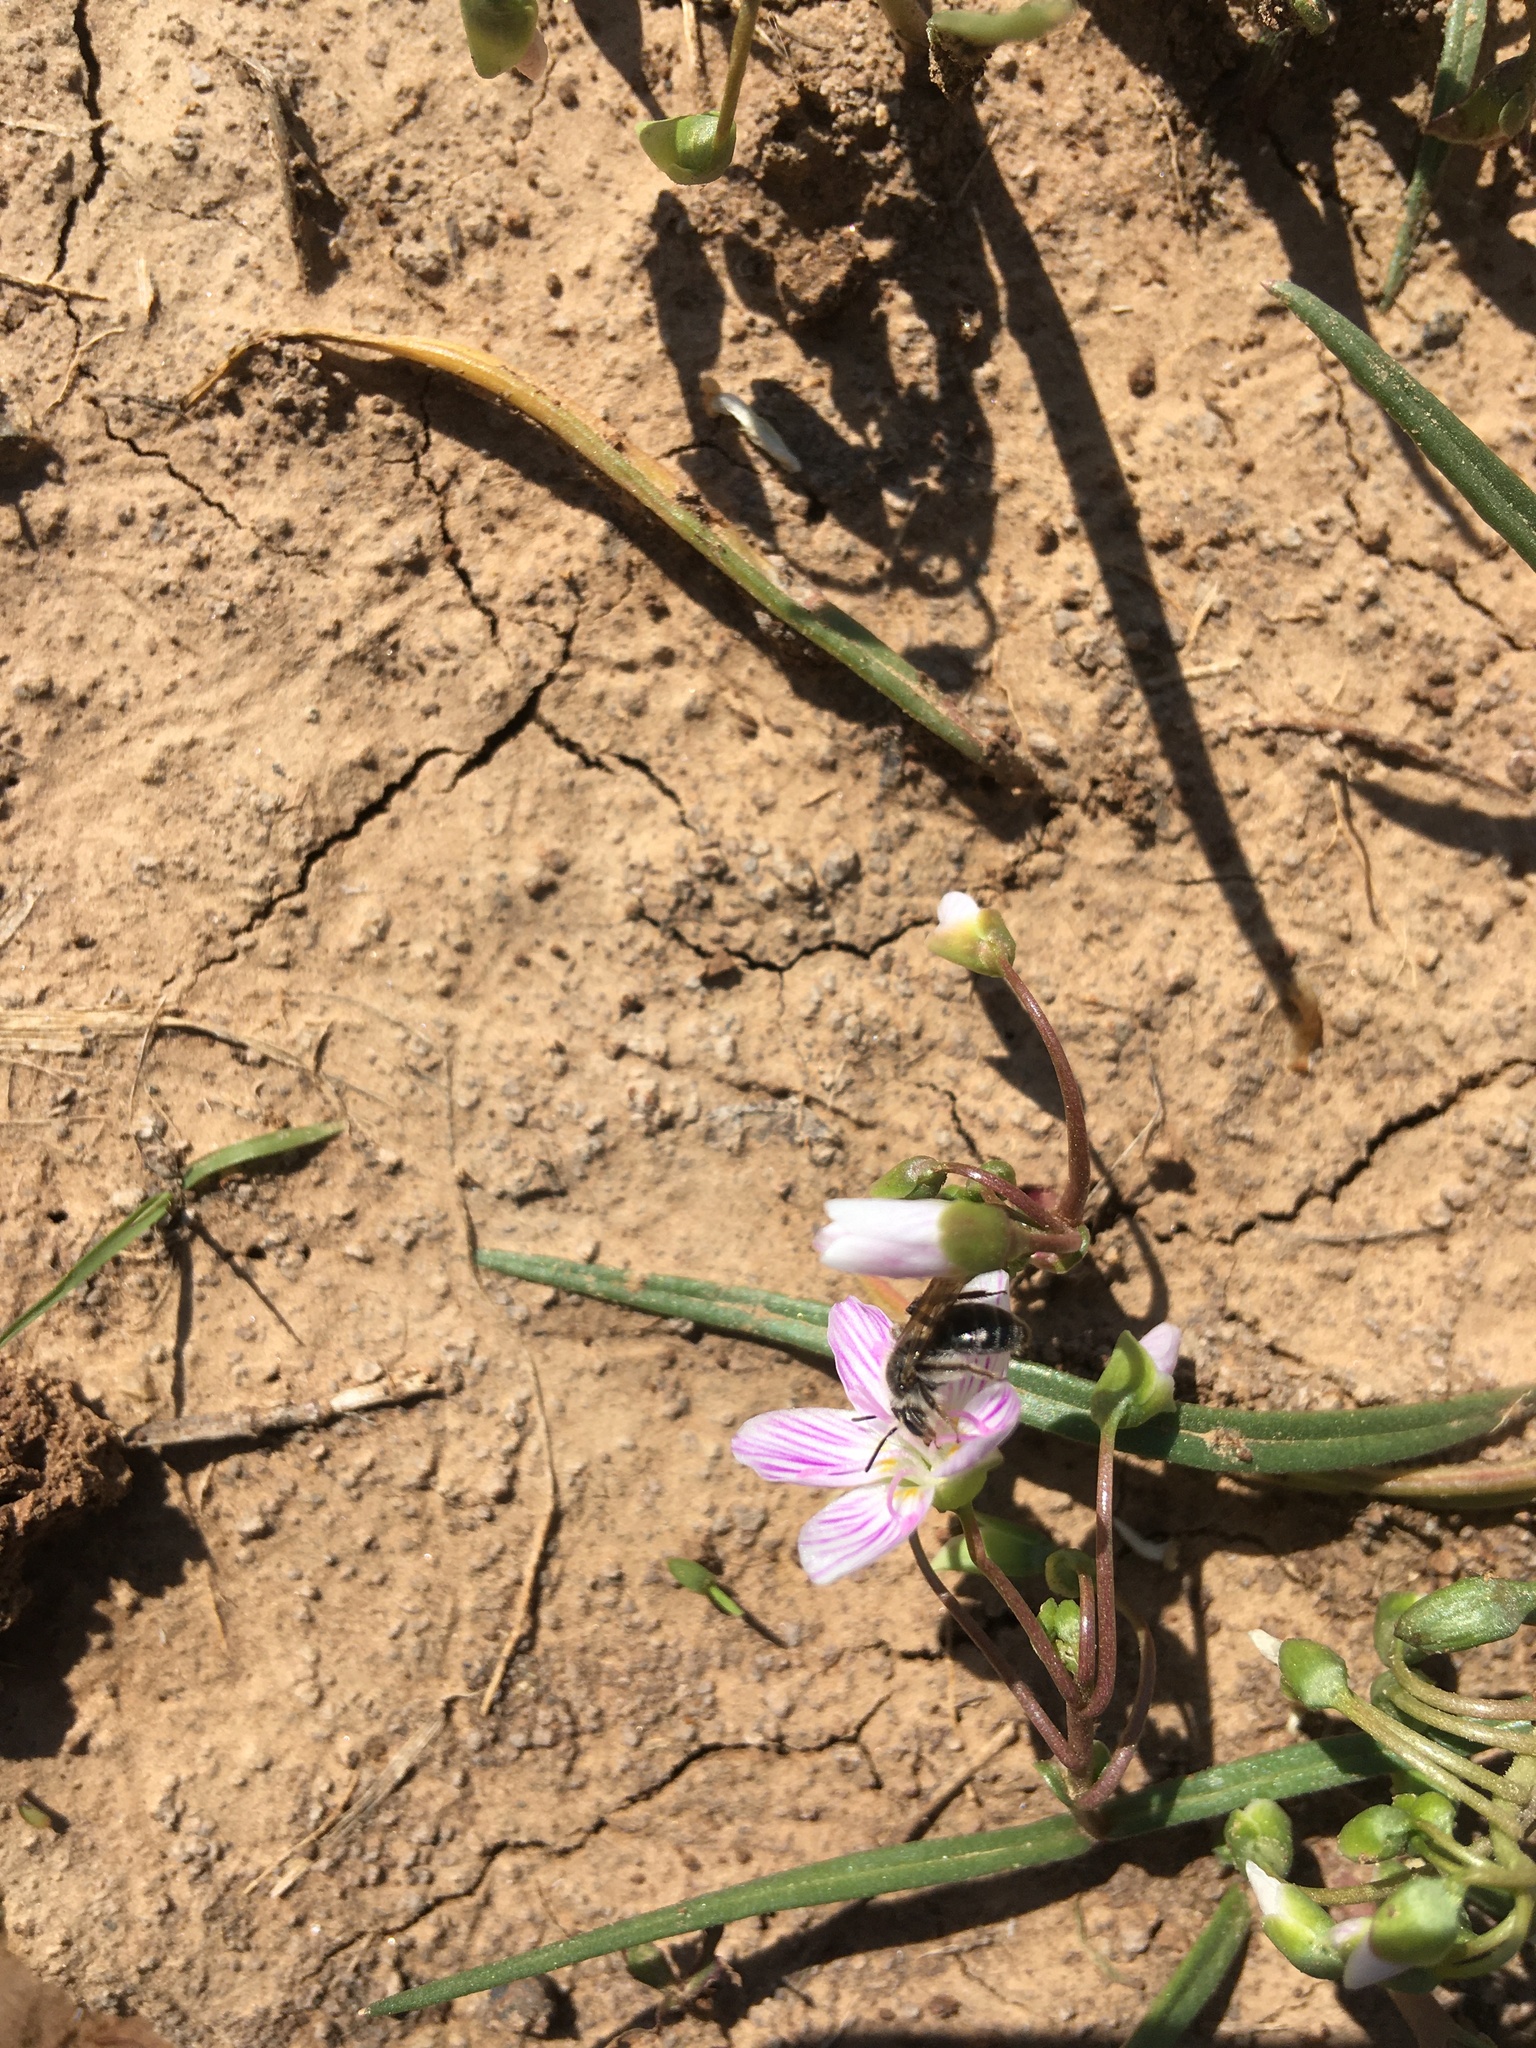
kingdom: Animalia
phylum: Arthropoda
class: Insecta
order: Hymenoptera
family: Andrenidae
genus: Andrena
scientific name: Andrena erigeniae
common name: Spring beauty miner
